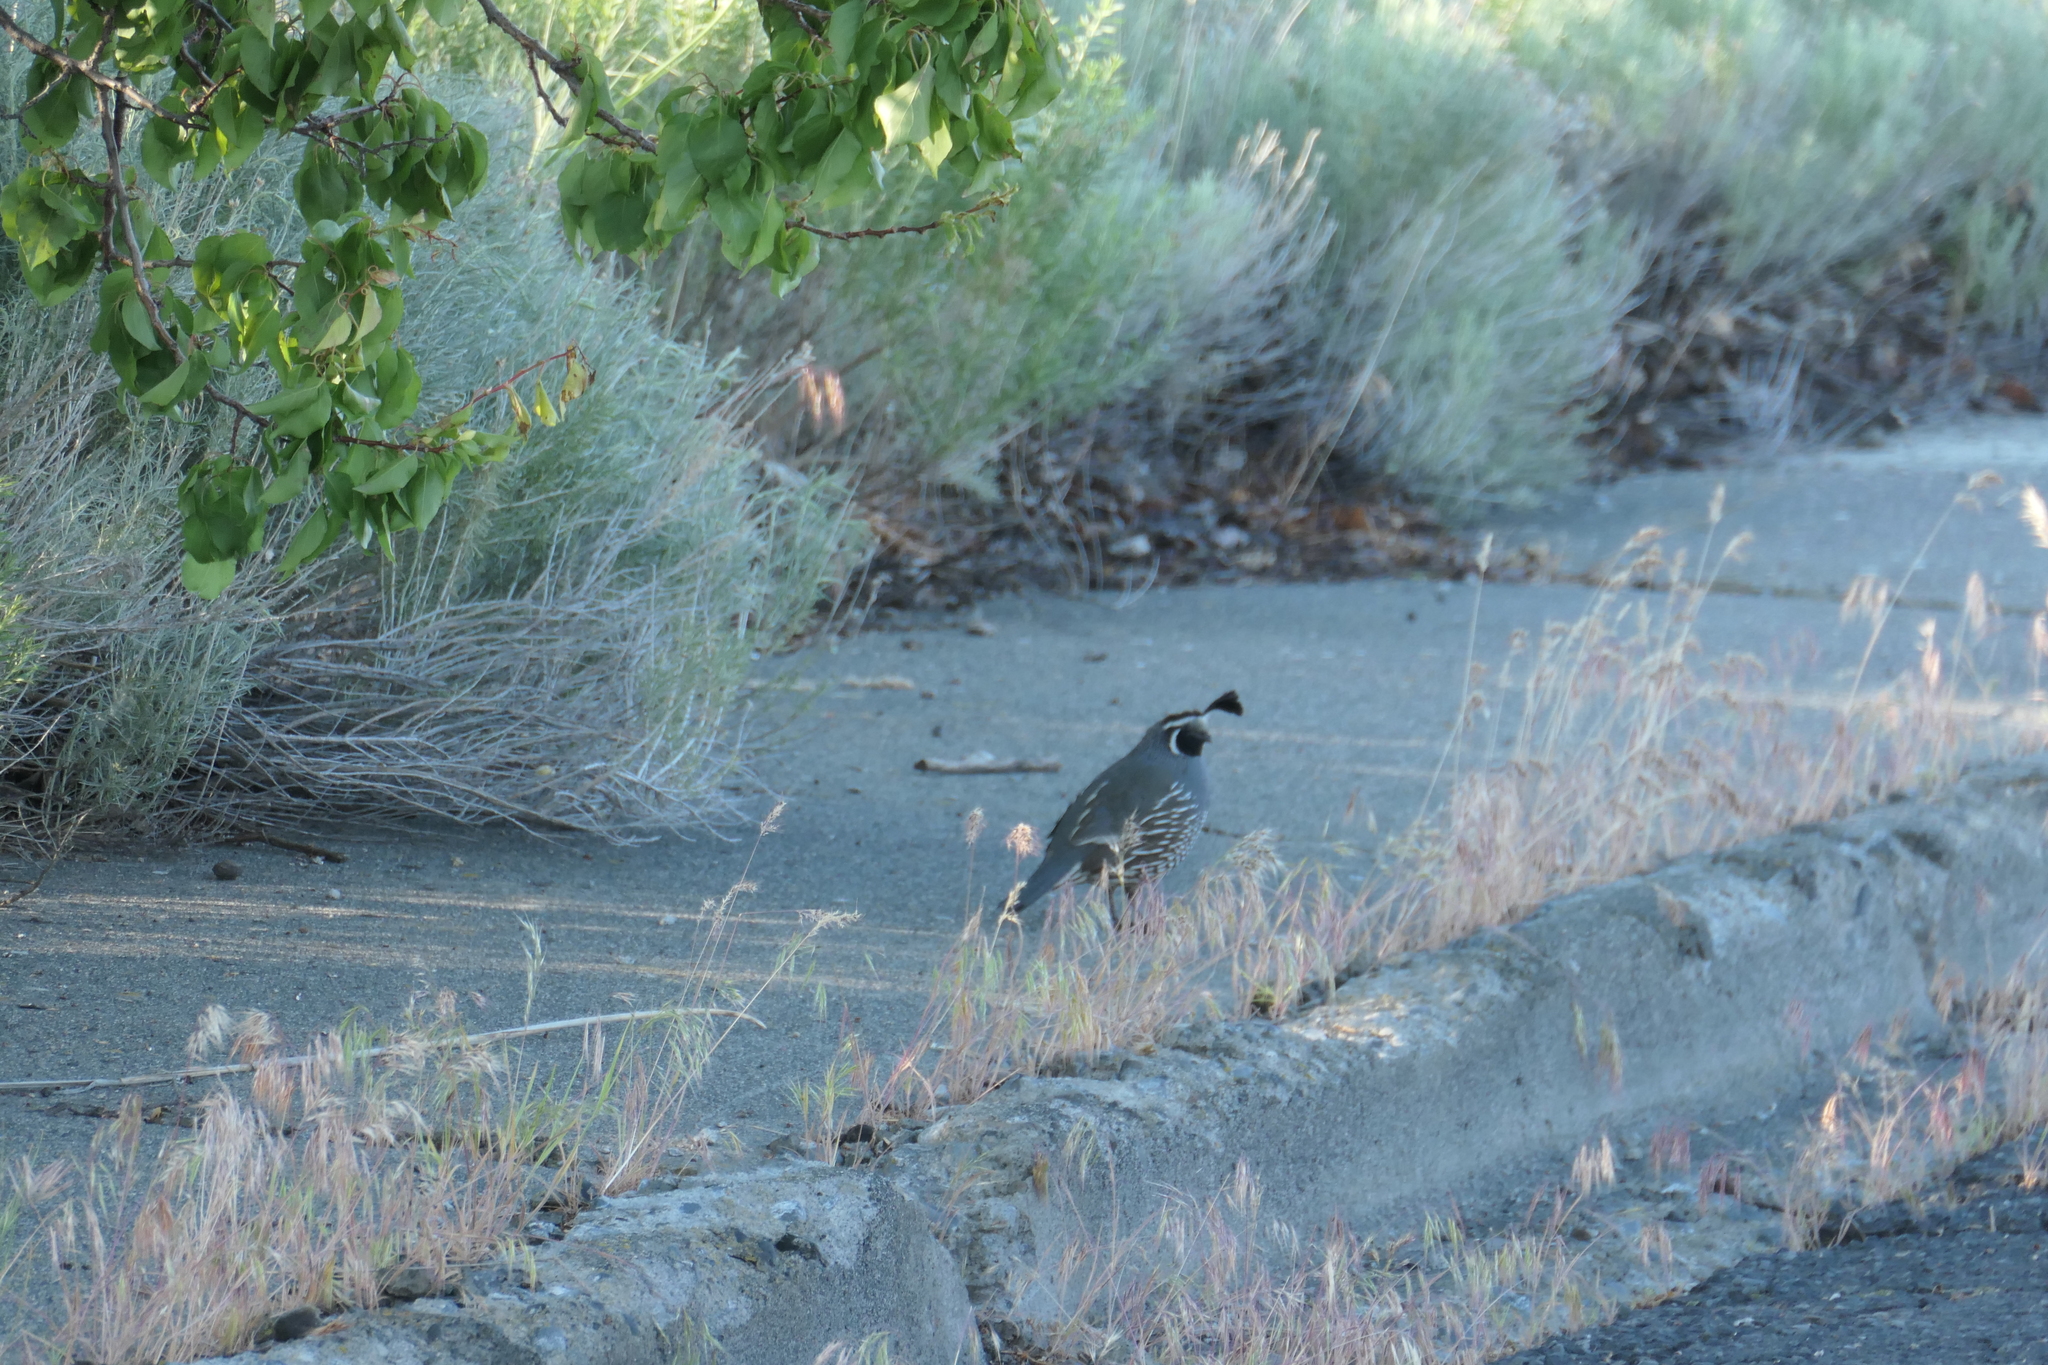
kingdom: Animalia
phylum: Chordata
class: Aves
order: Galliformes
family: Odontophoridae
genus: Callipepla
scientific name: Callipepla californica
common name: California quail
